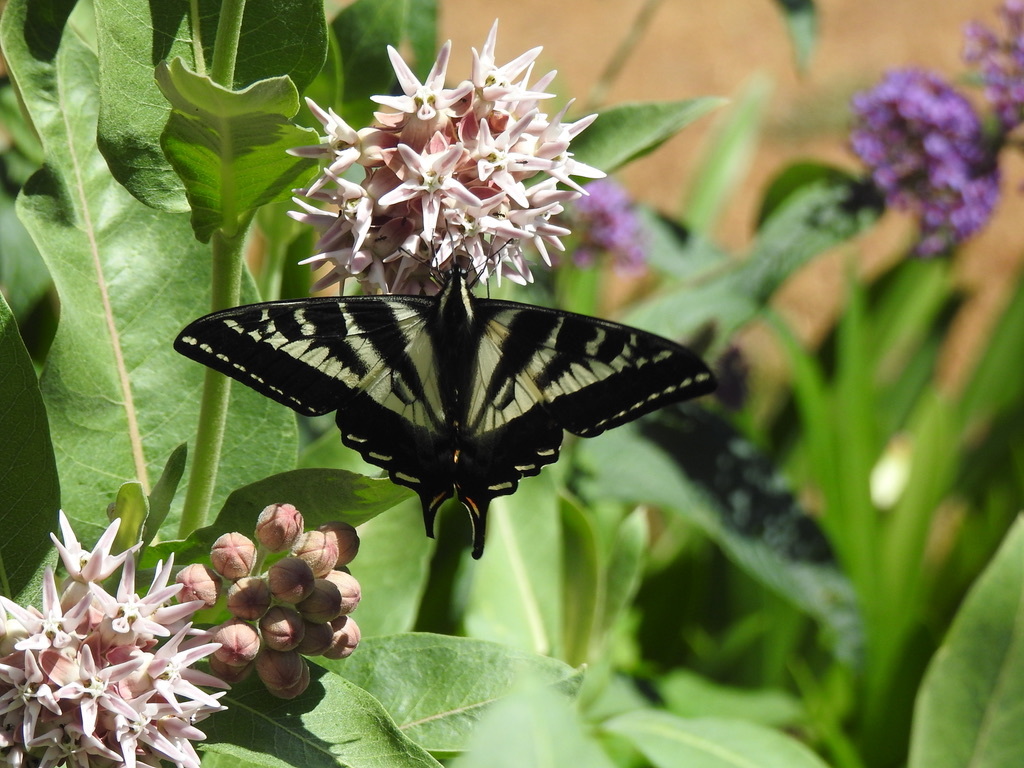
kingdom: Animalia
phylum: Arthropoda
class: Insecta
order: Lepidoptera
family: Papilionidae
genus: Papilio
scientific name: Papilio eurymedon
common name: Pale tiger swallowtail
